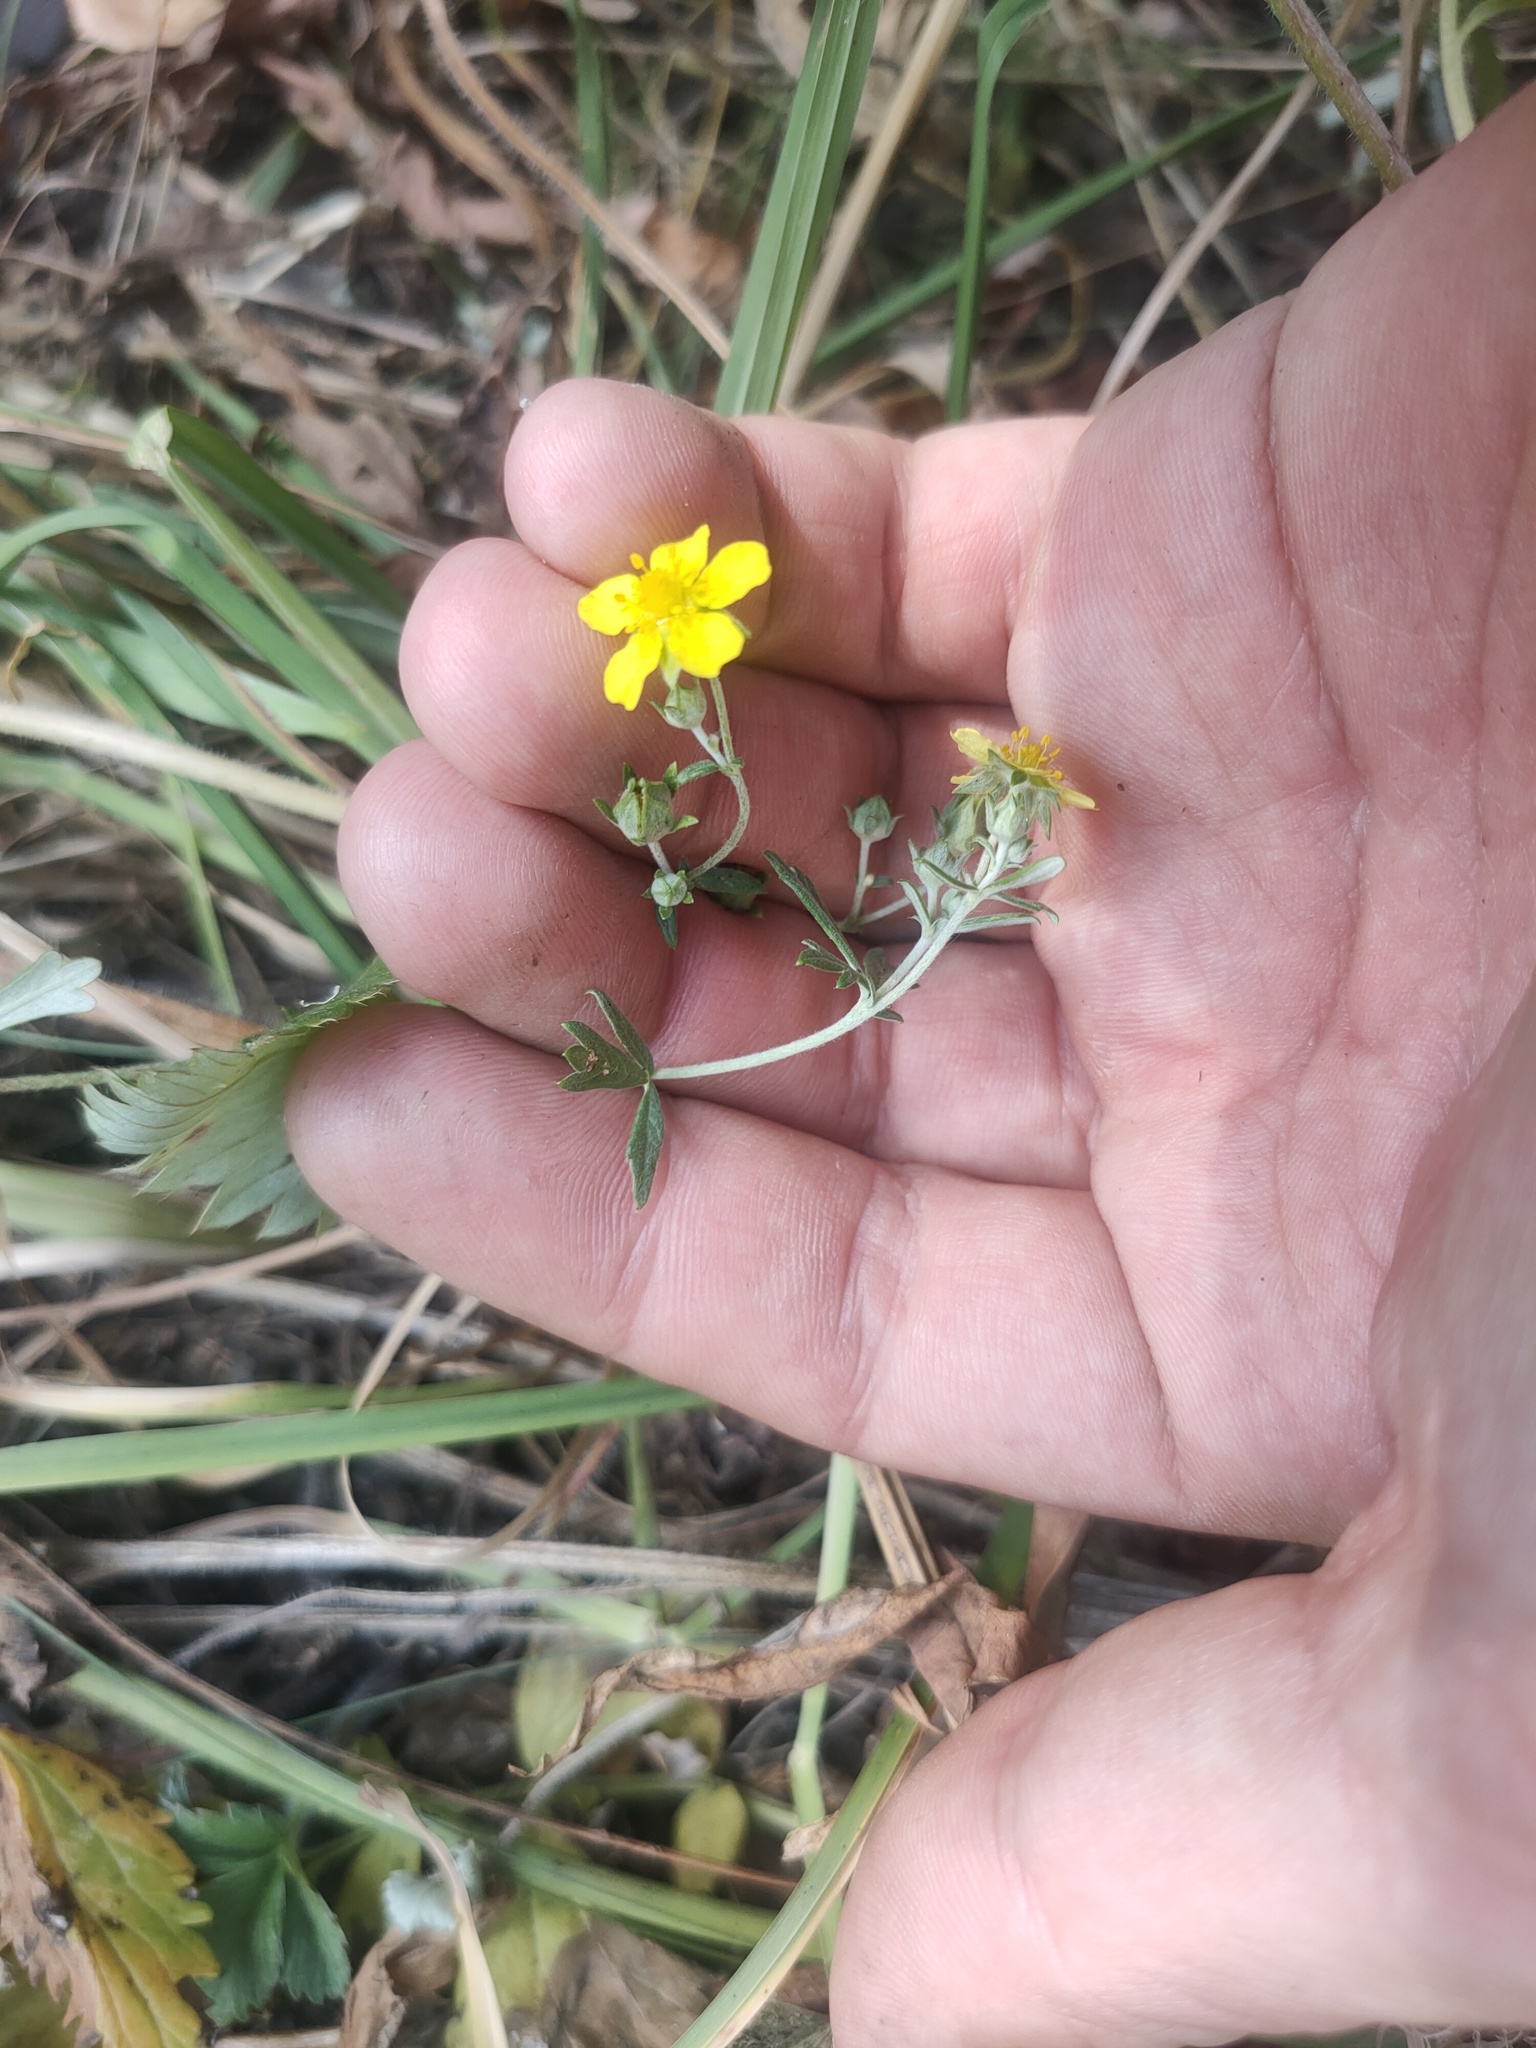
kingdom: Plantae
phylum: Tracheophyta
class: Magnoliopsida
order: Rosales
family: Rosaceae
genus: Potentilla
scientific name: Potentilla argentea
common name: Hoary cinquefoil
